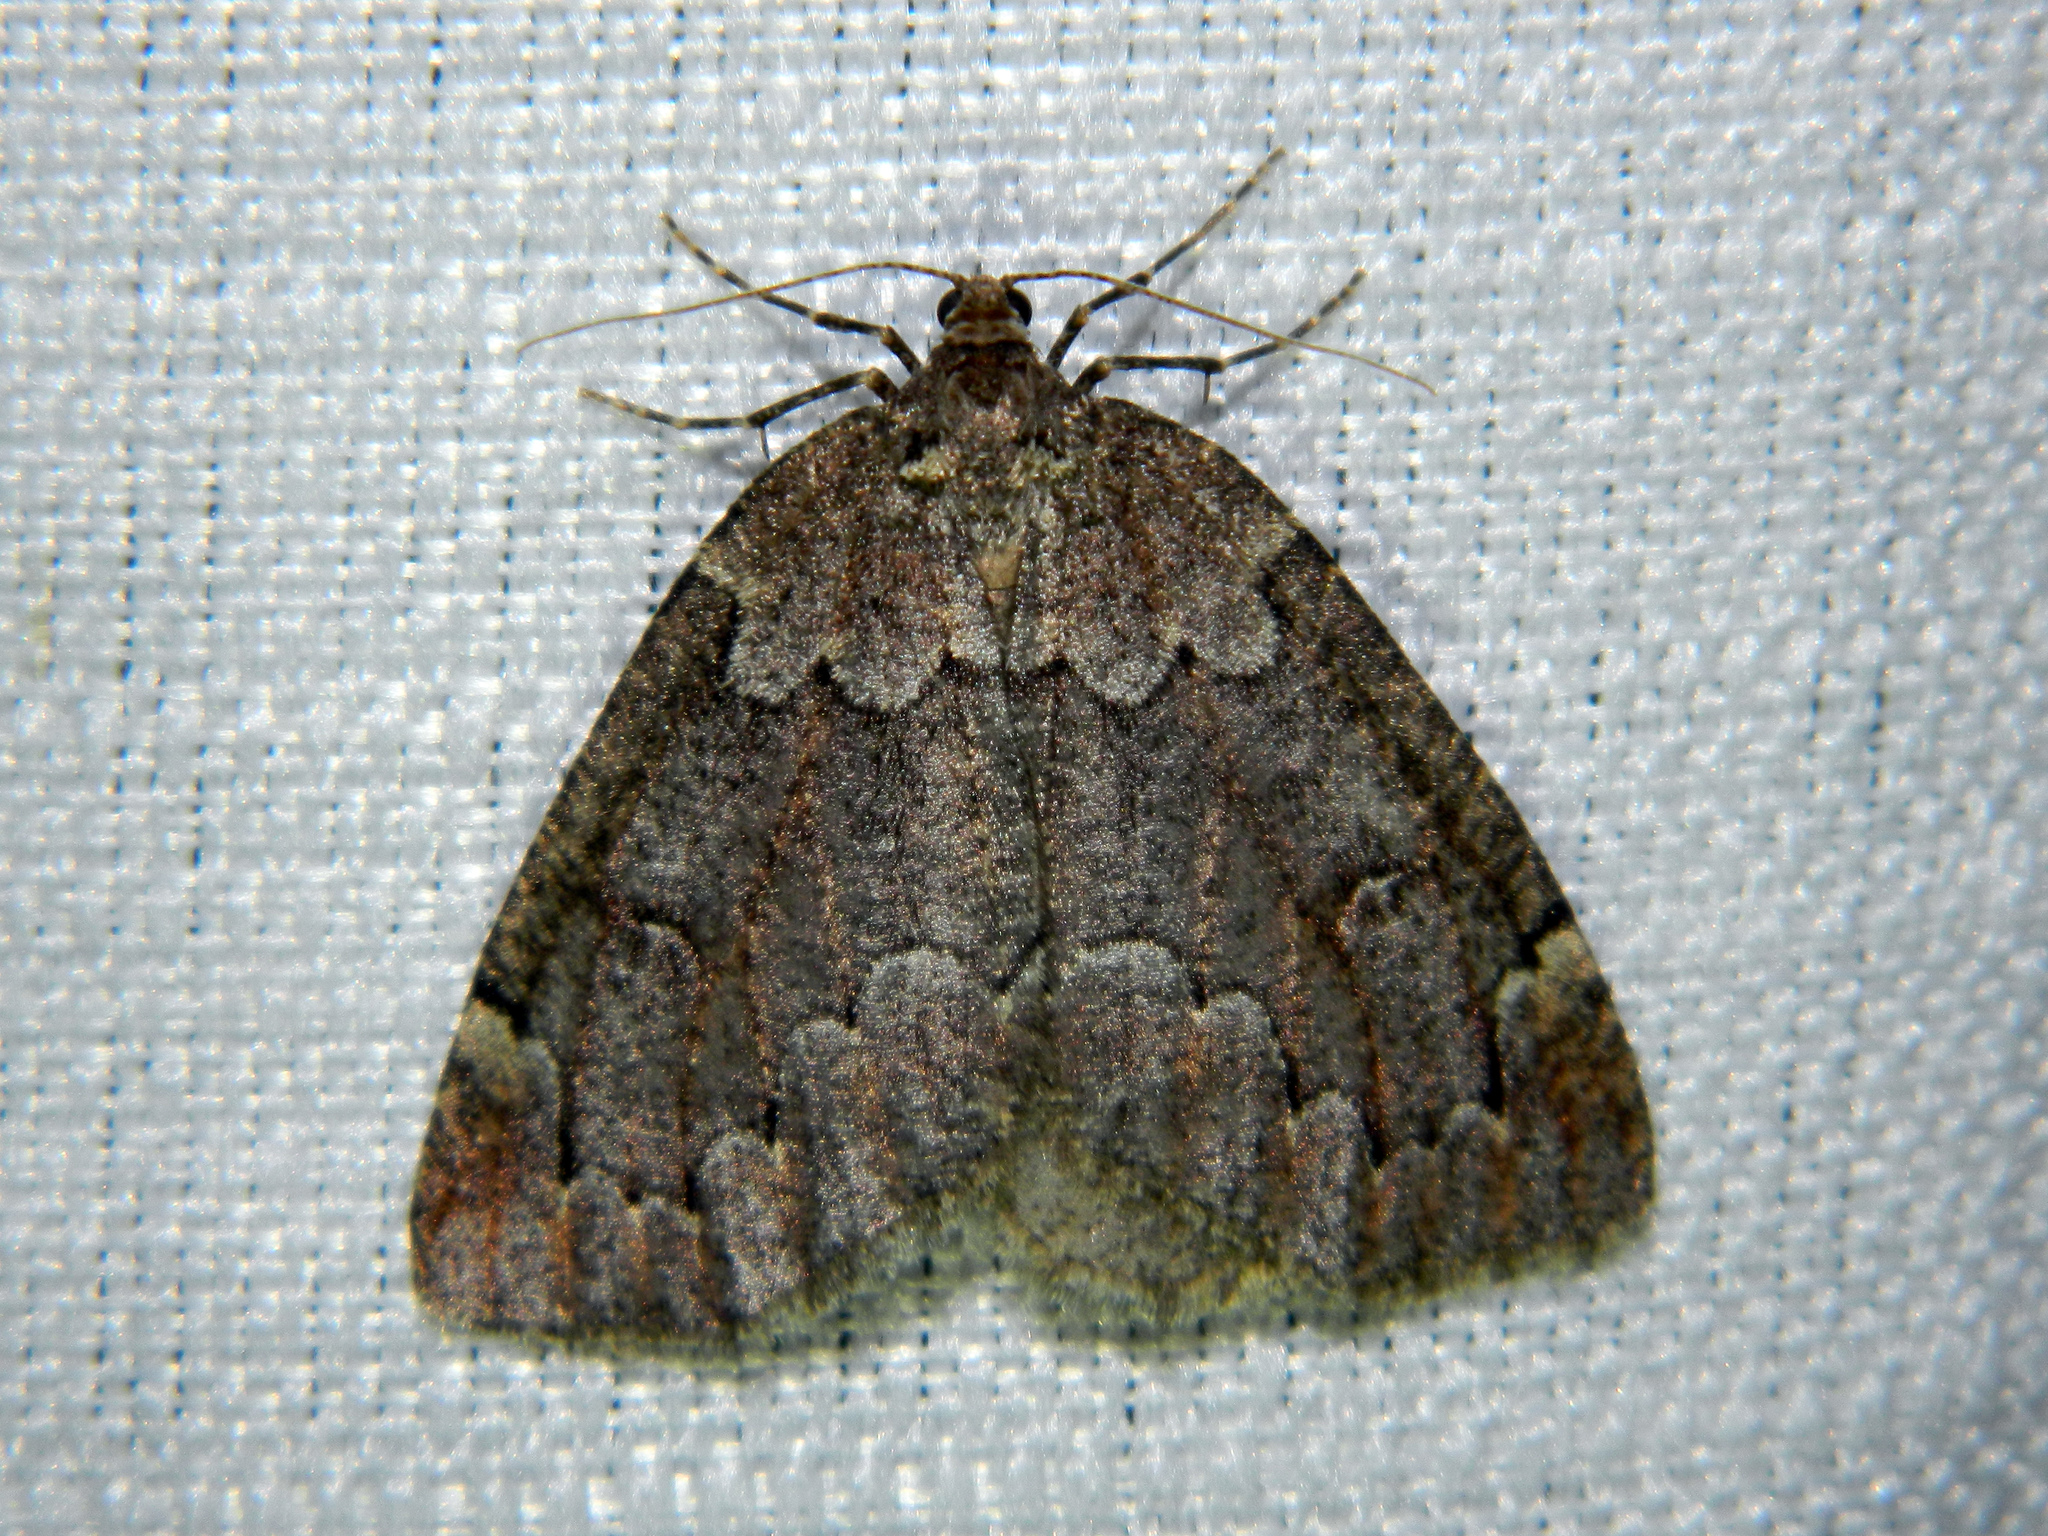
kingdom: Animalia
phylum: Arthropoda
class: Insecta
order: Lepidoptera
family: Geometridae
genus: Spodolepis
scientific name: Spodolepis substriataria
